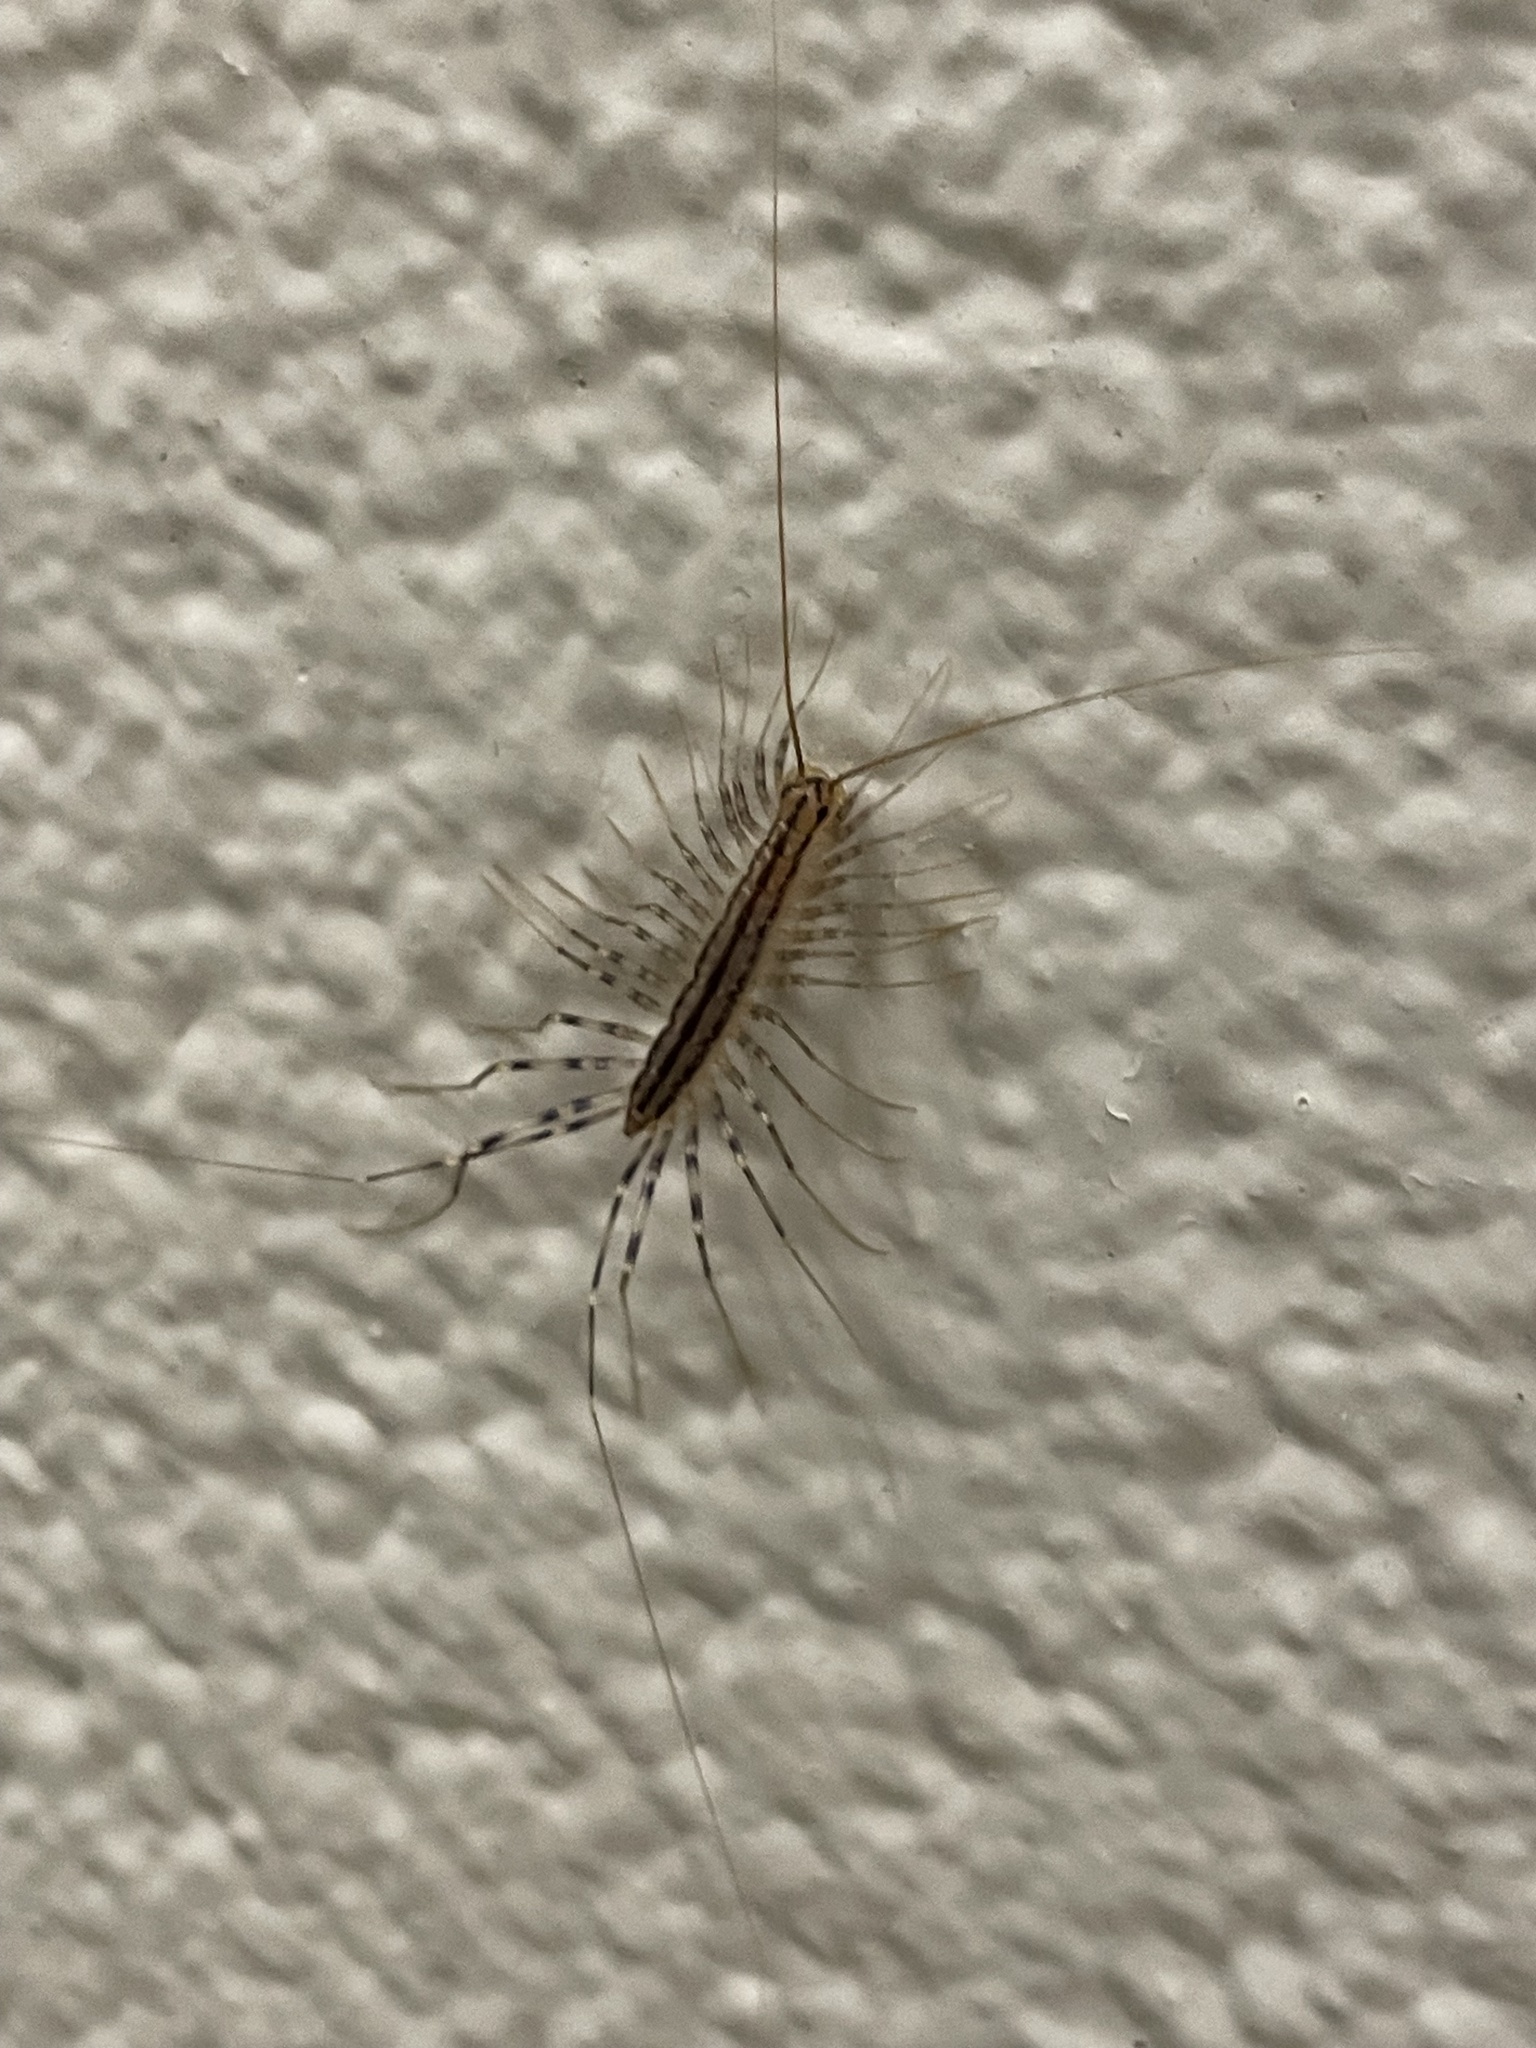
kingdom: Animalia
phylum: Arthropoda
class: Chilopoda
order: Scutigeromorpha
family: Scutigeridae
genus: Scutigera
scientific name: Scutigera coleoptrata
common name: House centipede
